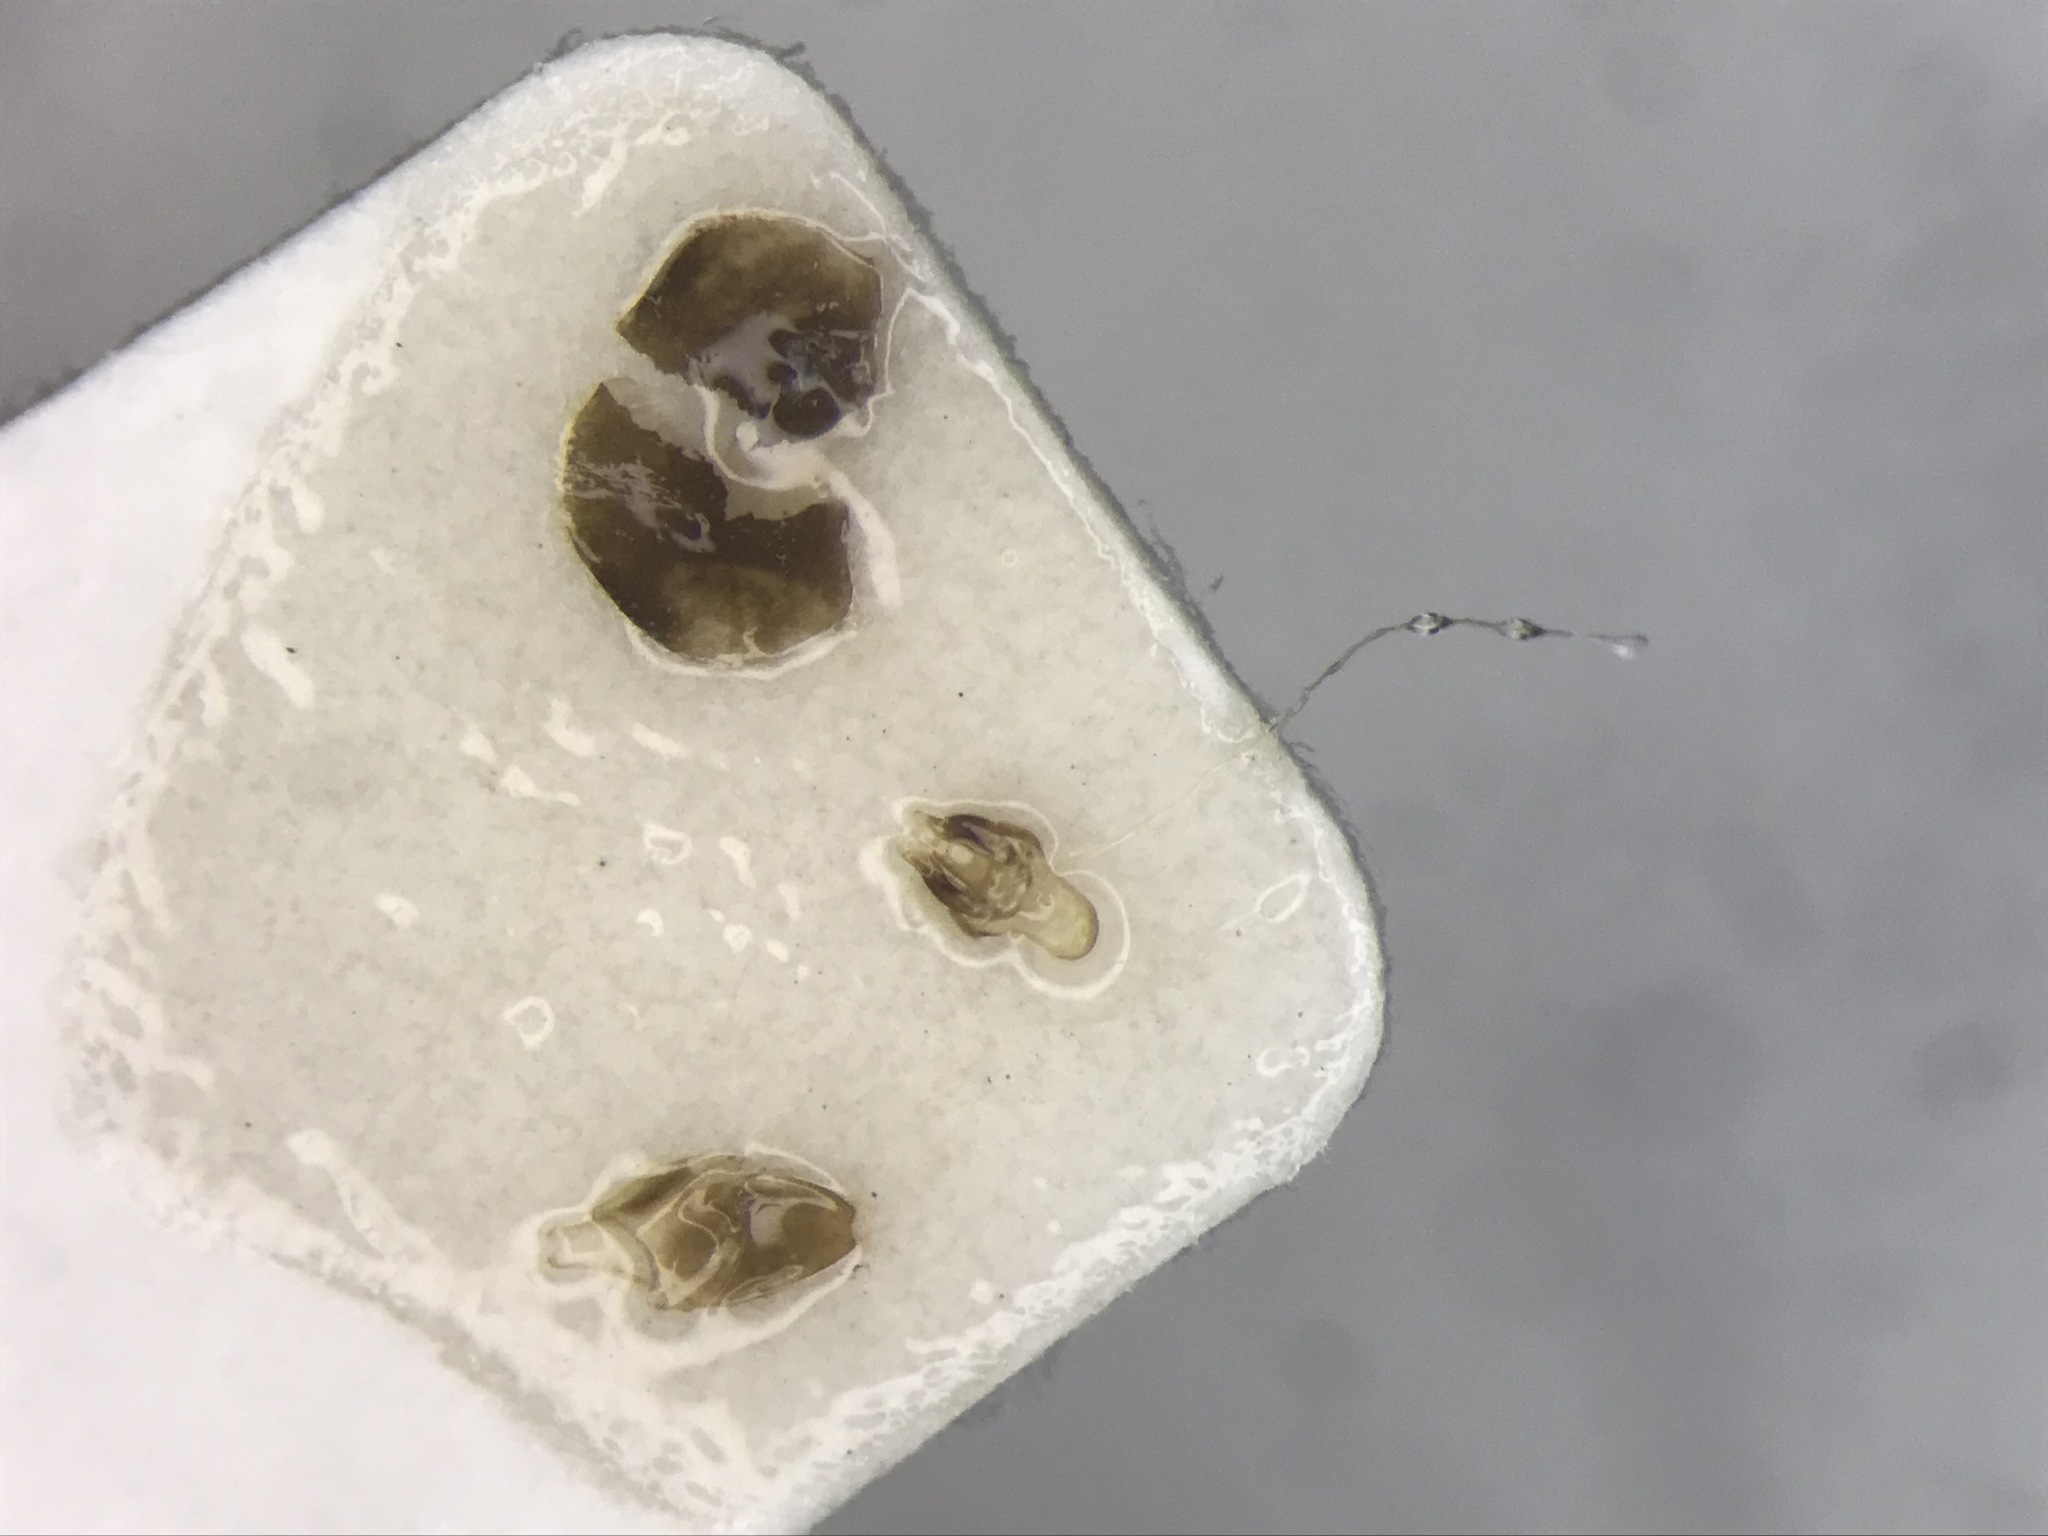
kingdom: Animalia
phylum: Arthropoda
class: Insecta
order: Coleoptera
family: Lampyridae
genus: Photinus
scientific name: Photinus obscurellus
